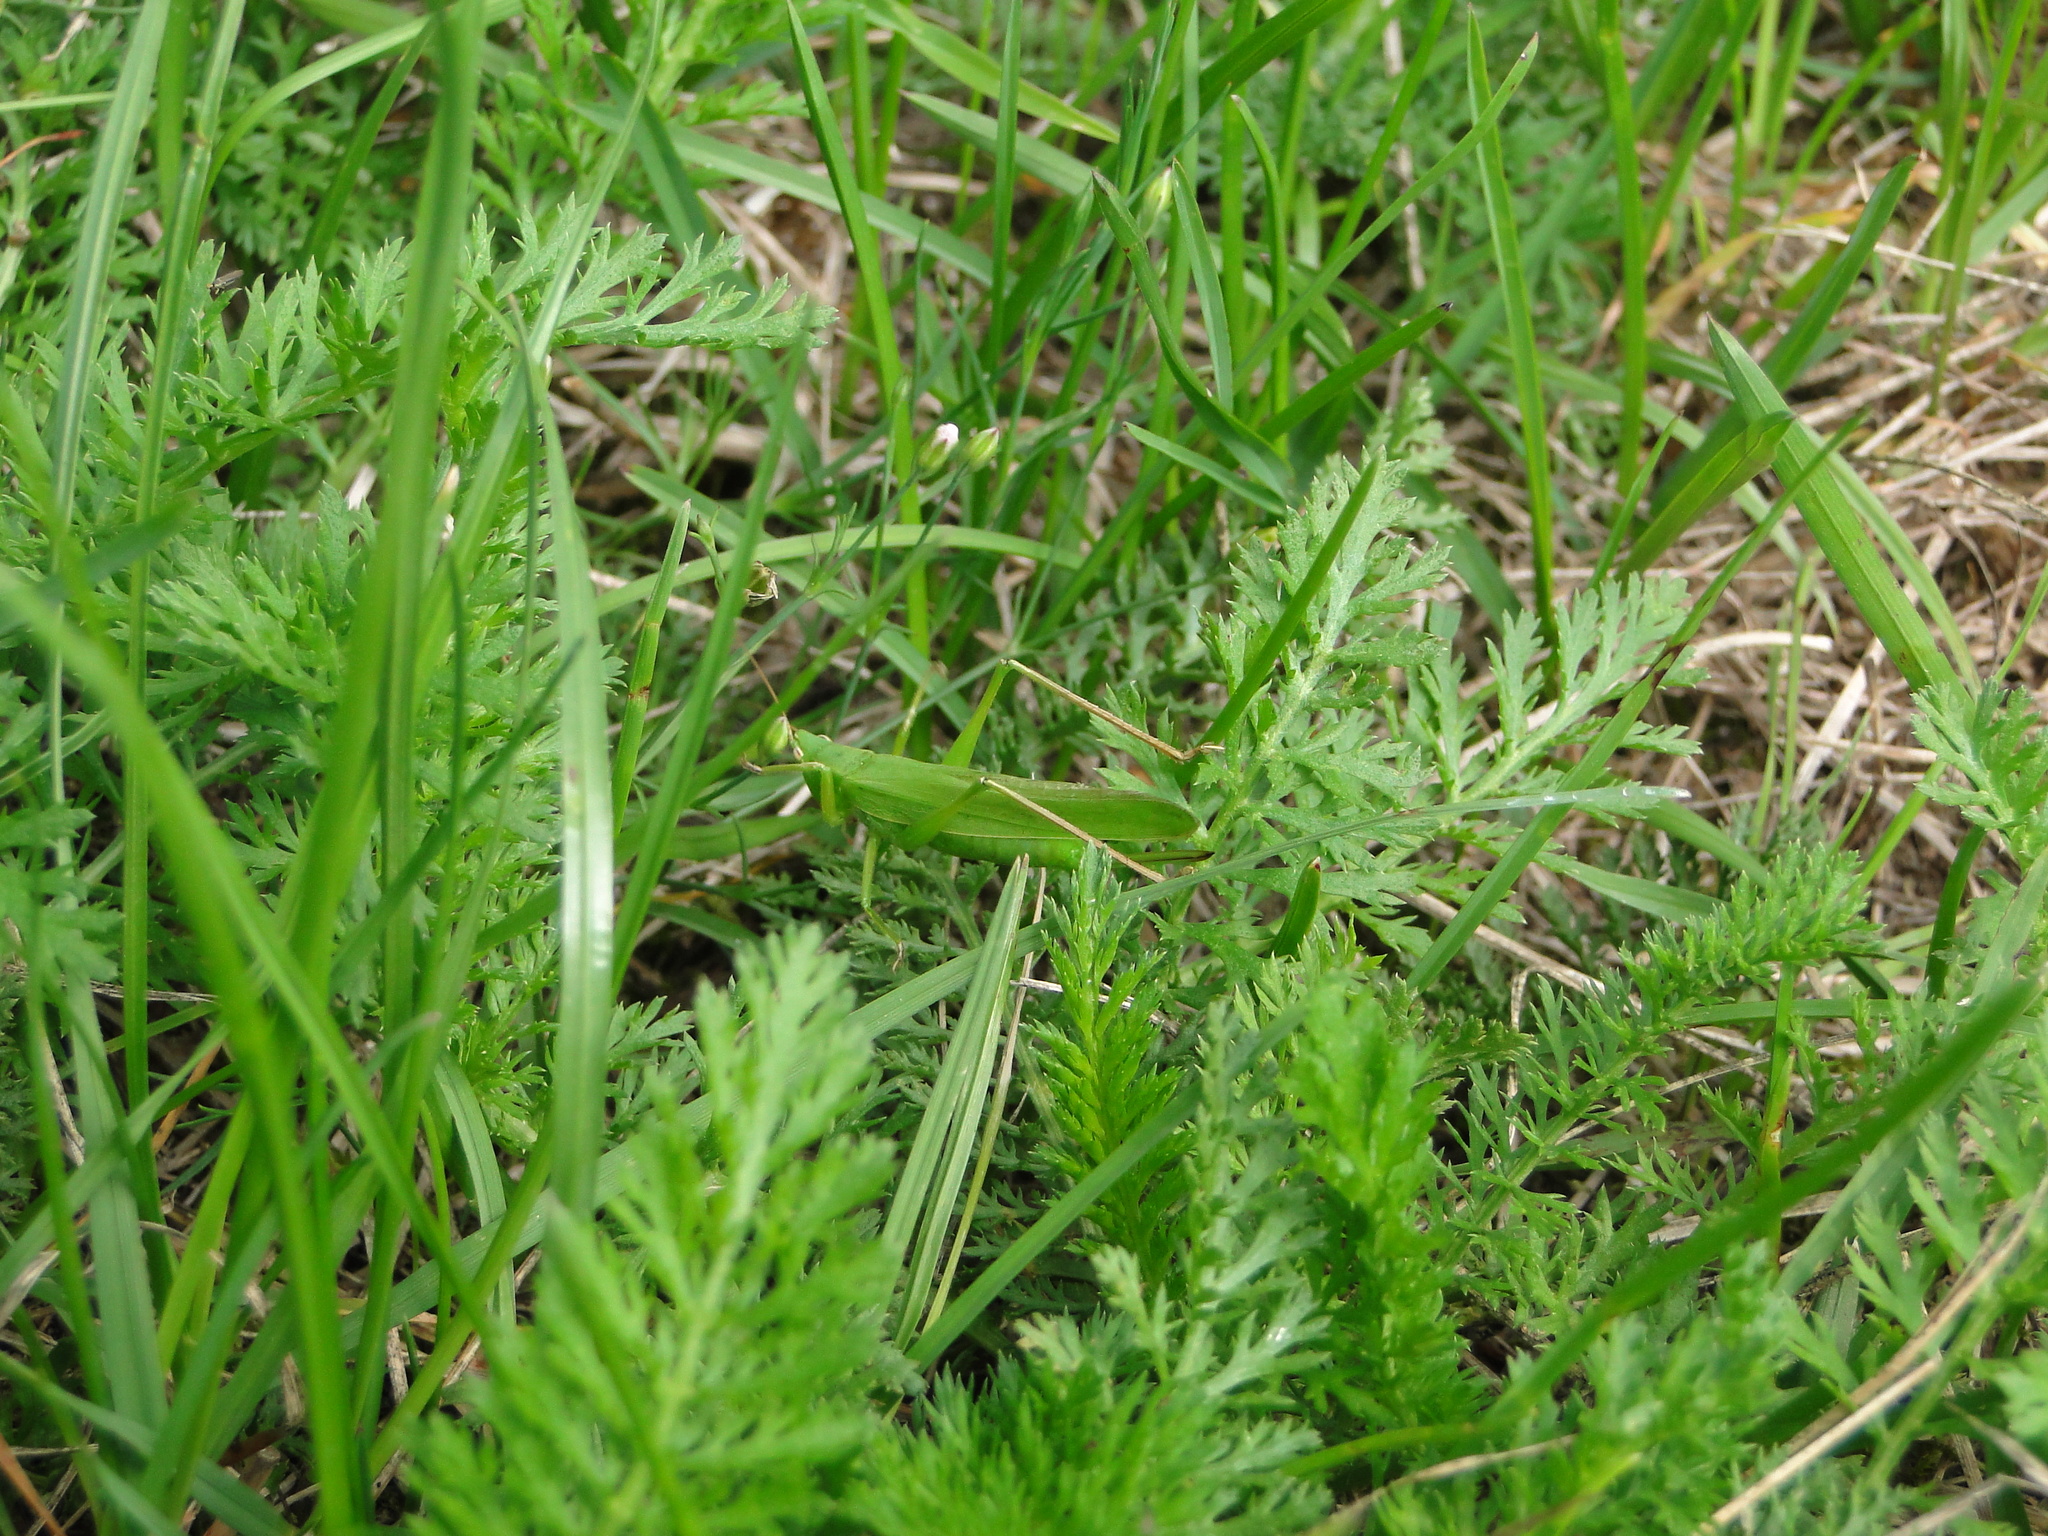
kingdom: Animalia
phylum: Arthropoda
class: Insecta
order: Orthoptera
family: Tettigoniidae
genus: Ruspolia
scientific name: Ruspolia nitidula
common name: Large conehead
